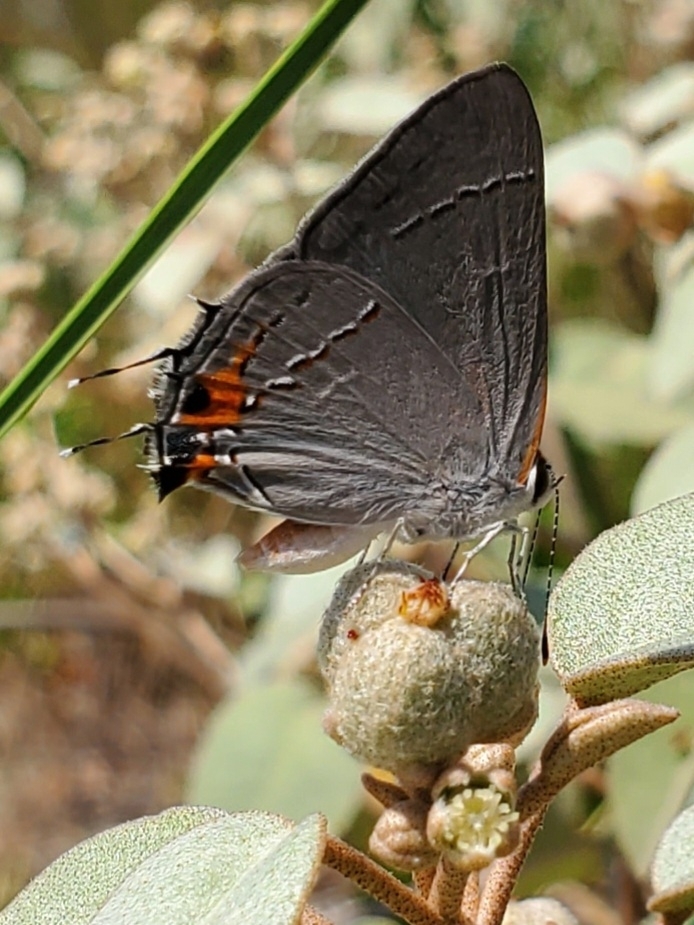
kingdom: Animalia
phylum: Arthropoda
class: Insecta
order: Lepidoptera
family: Lycaenidae
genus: Strymon
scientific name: Strymon melinus
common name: Gray hairstreak
